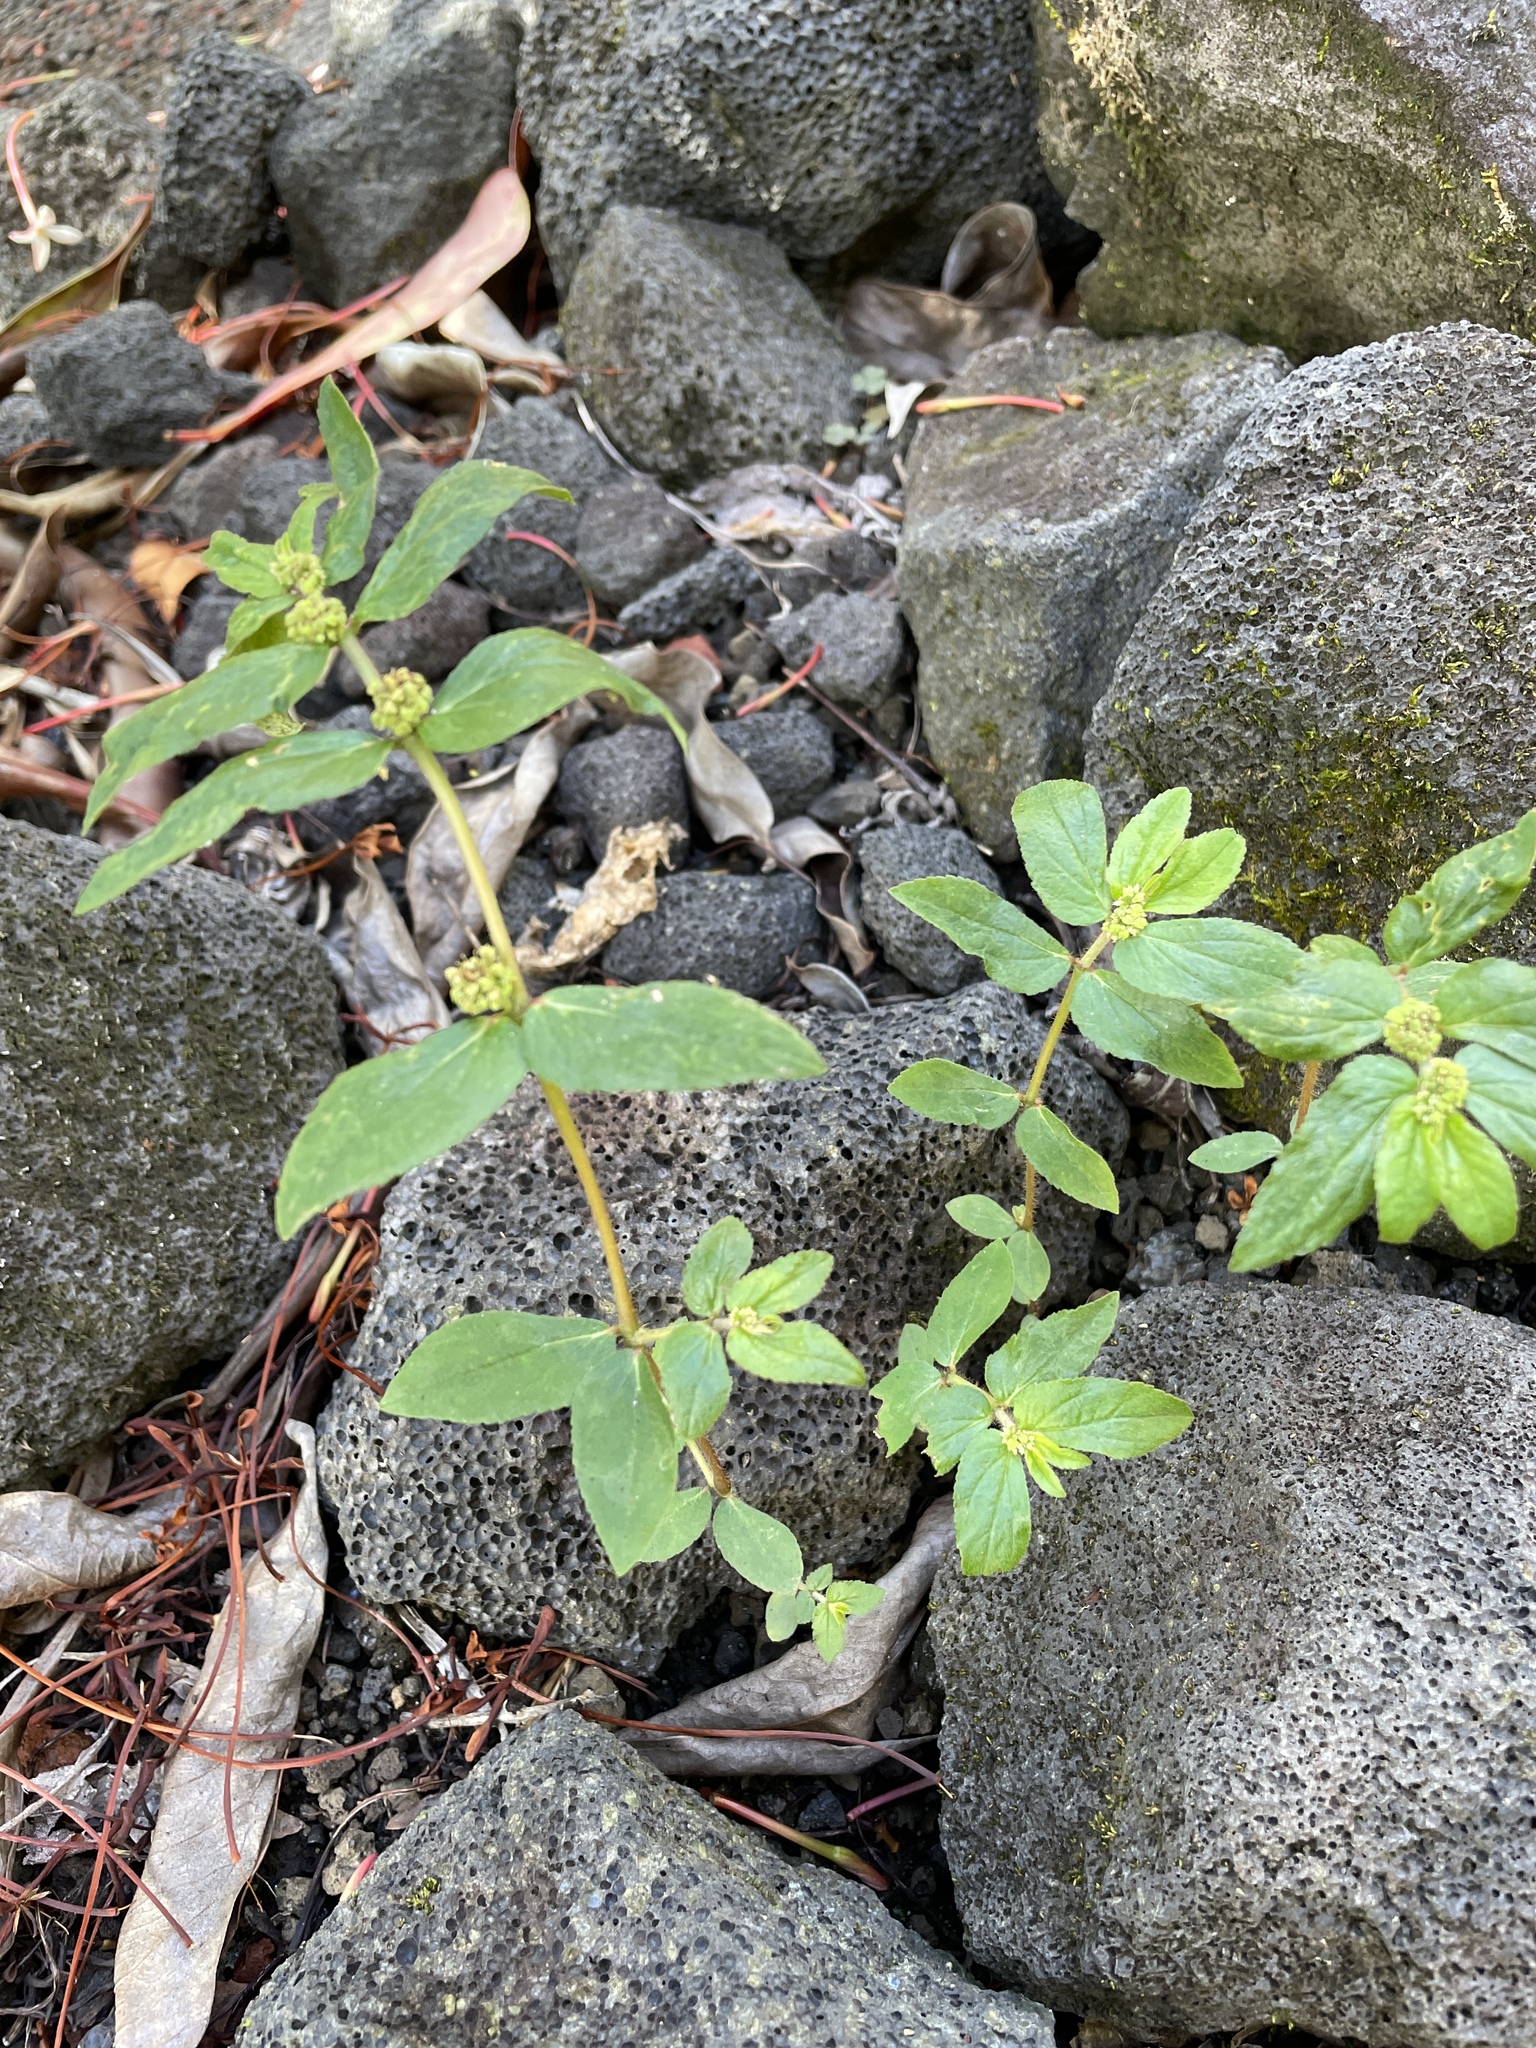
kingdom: Plantae
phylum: Tracheophyta
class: Magnoliopsida
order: Malpighiales
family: Euphorbiaceae
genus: Euphorbia
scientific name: Euphorbia hirta
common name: Pillpod sandmat
